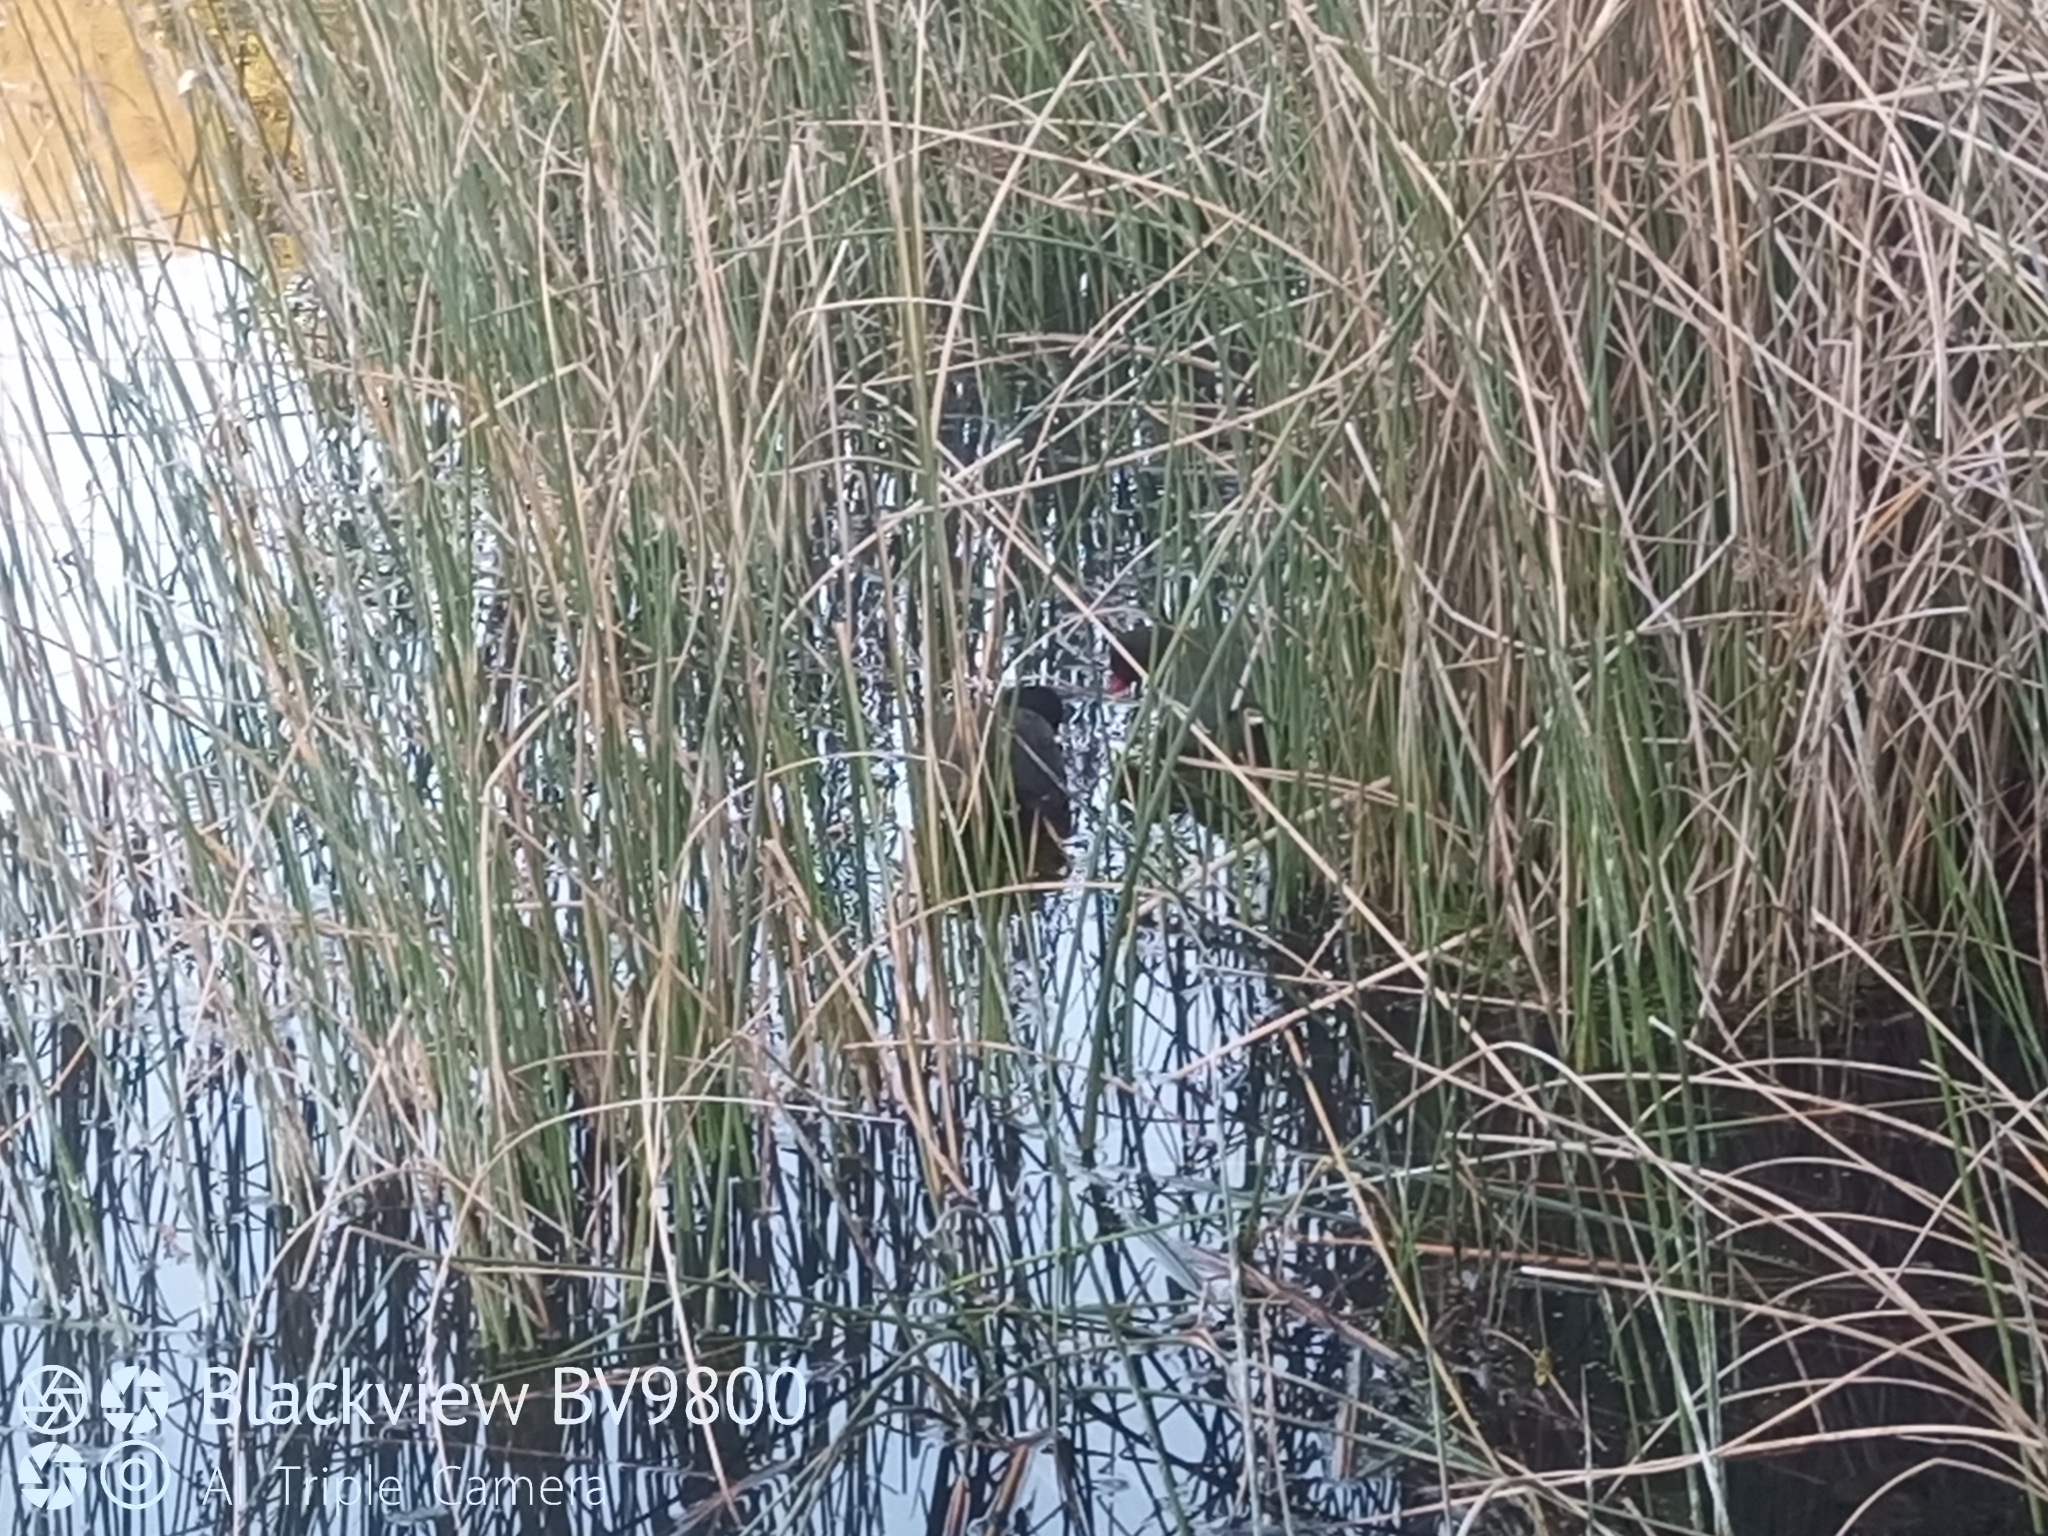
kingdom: Animalia
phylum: Chordata
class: Aves
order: Gruiformes
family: Rallidae
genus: Gallinula
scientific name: Gallinula tenebrosa
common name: Dusky moorhen
